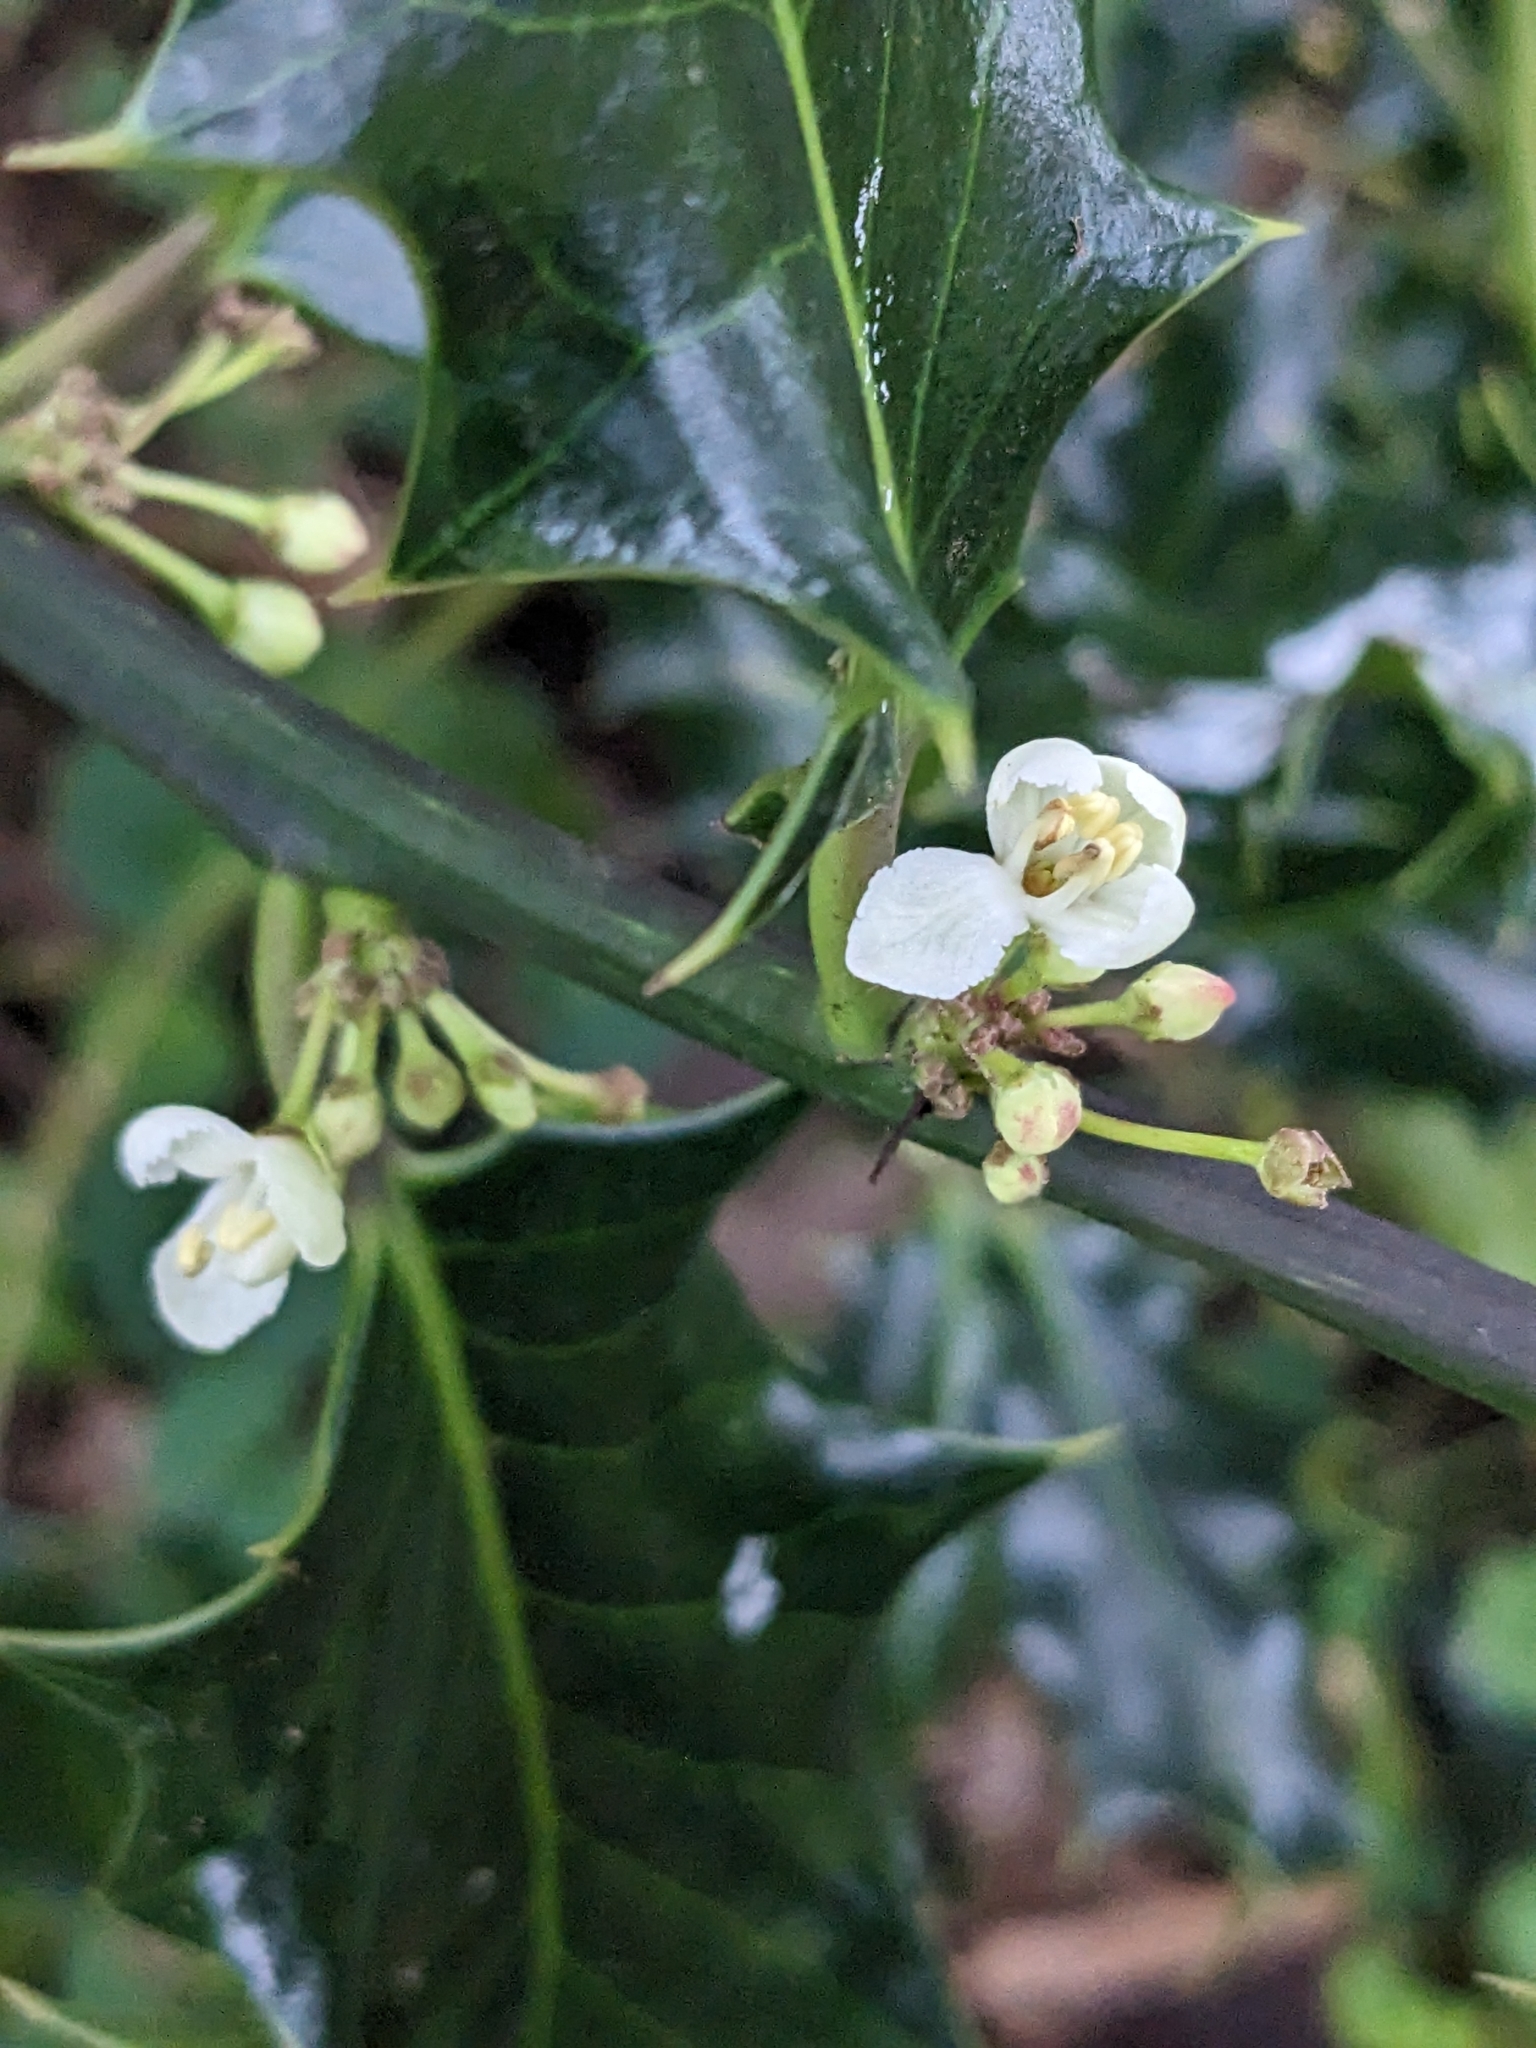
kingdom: Plantae
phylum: Tracheophyta
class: Magnoliopsida
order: Aquifoliales
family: Aquifoliaceae
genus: Ilex
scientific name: Ilex aquifolium
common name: English holly
